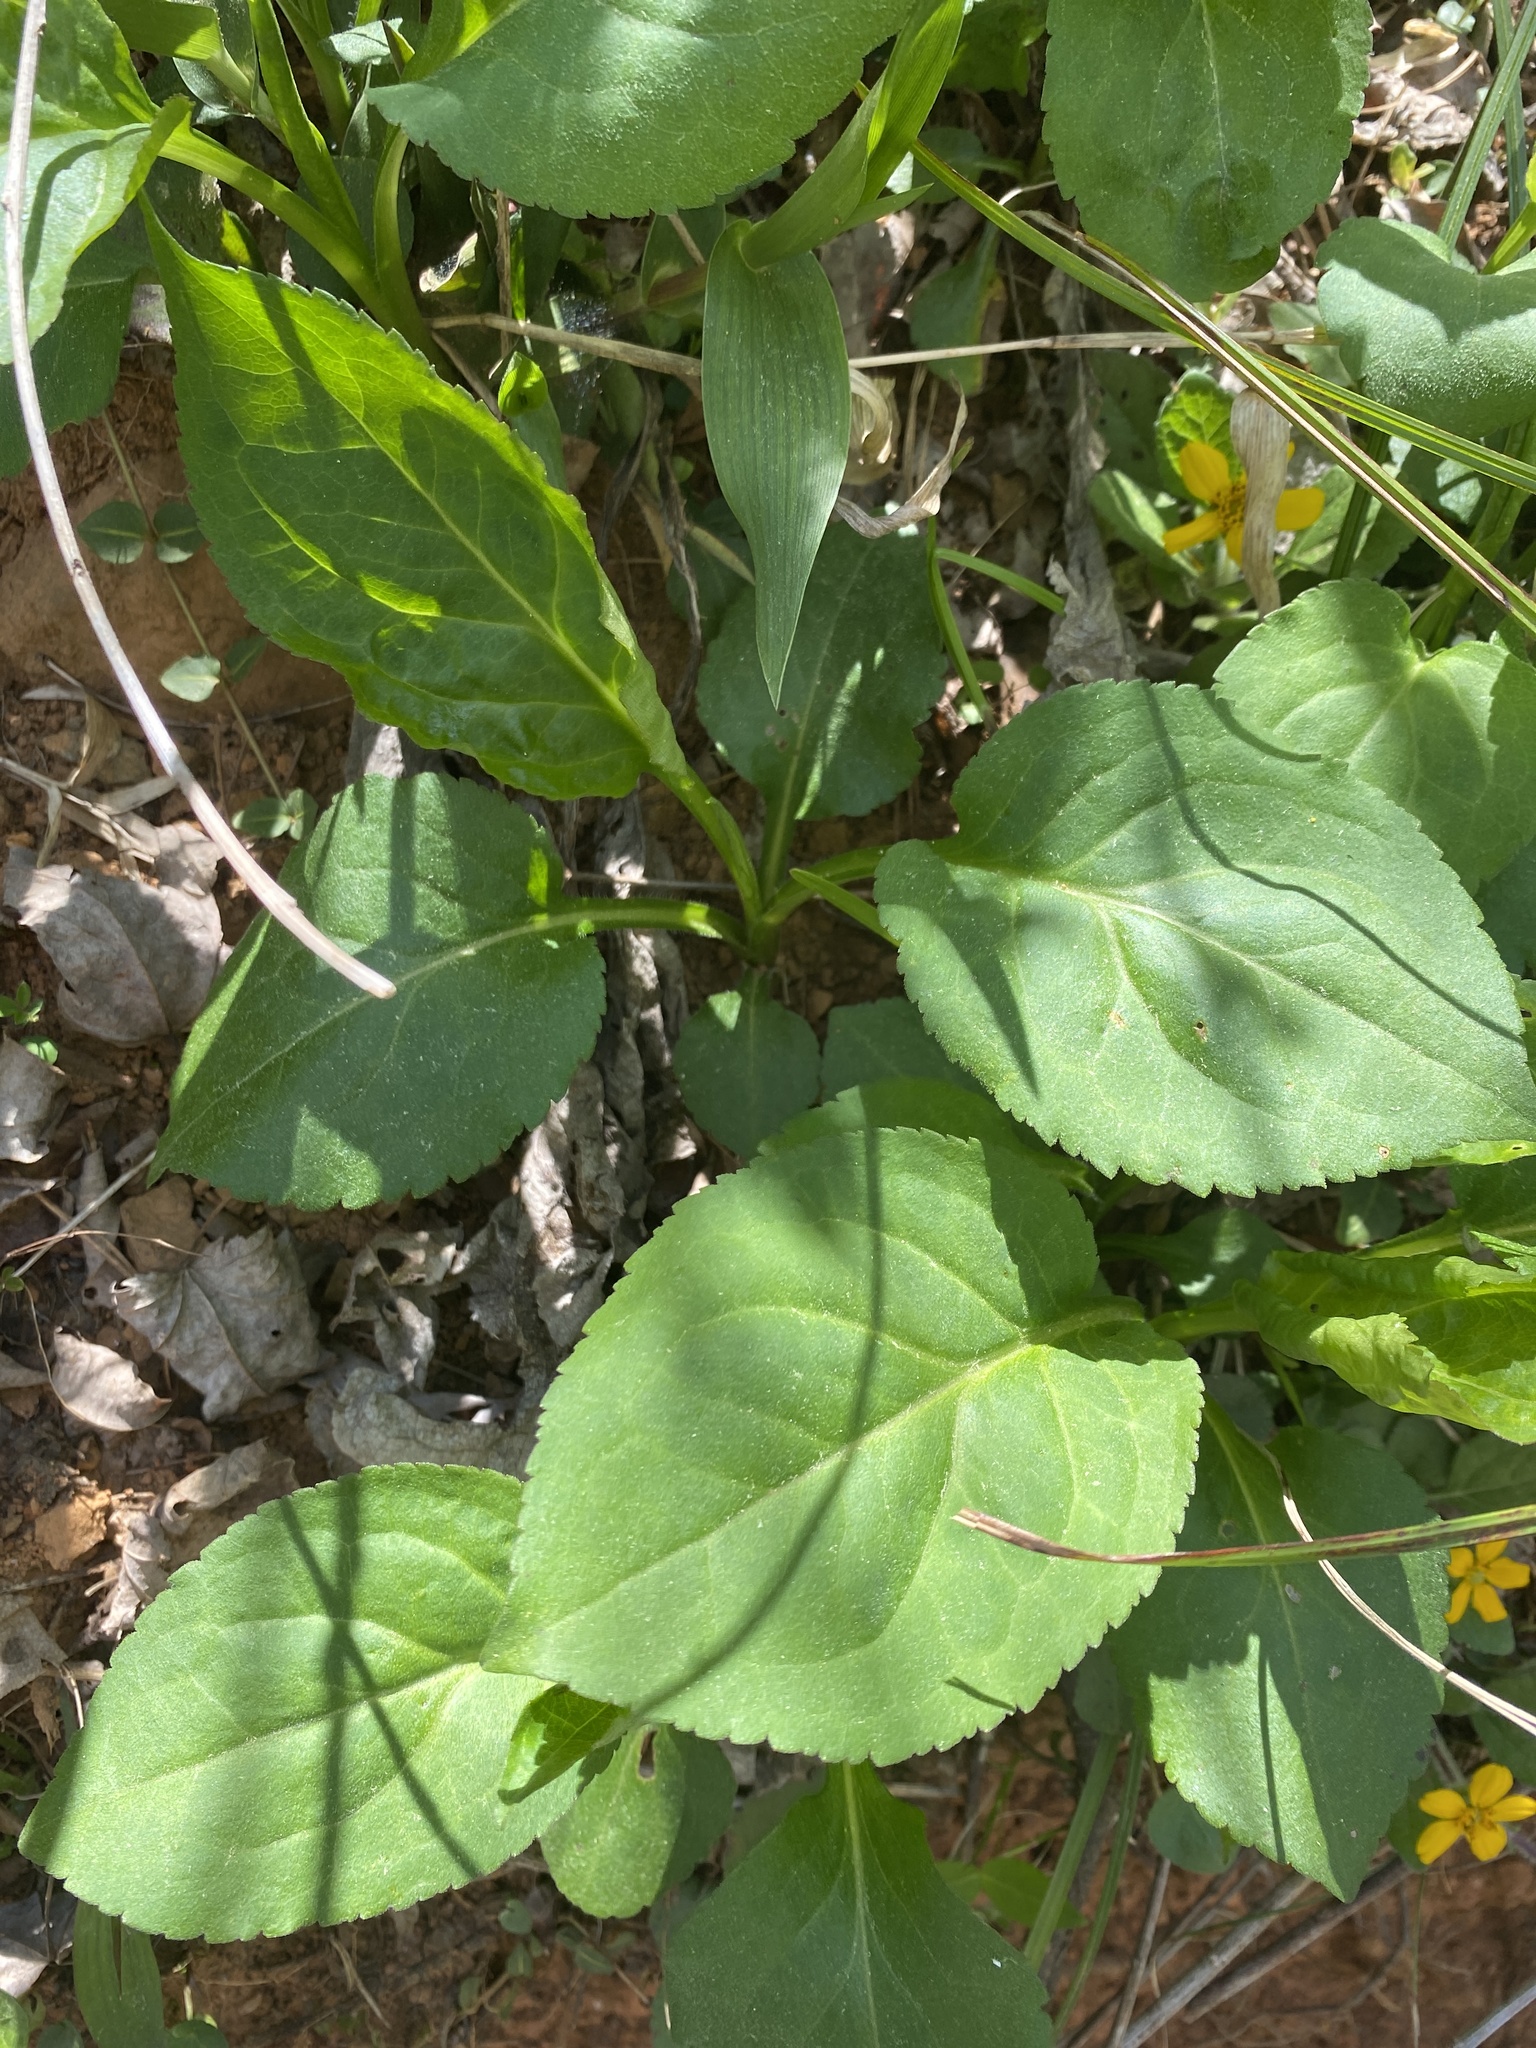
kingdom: Plantae
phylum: Tracheophyta
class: Magnoliopsida
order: Asterales
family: Asteraceae
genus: Solidago
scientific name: Solidago faucibus
